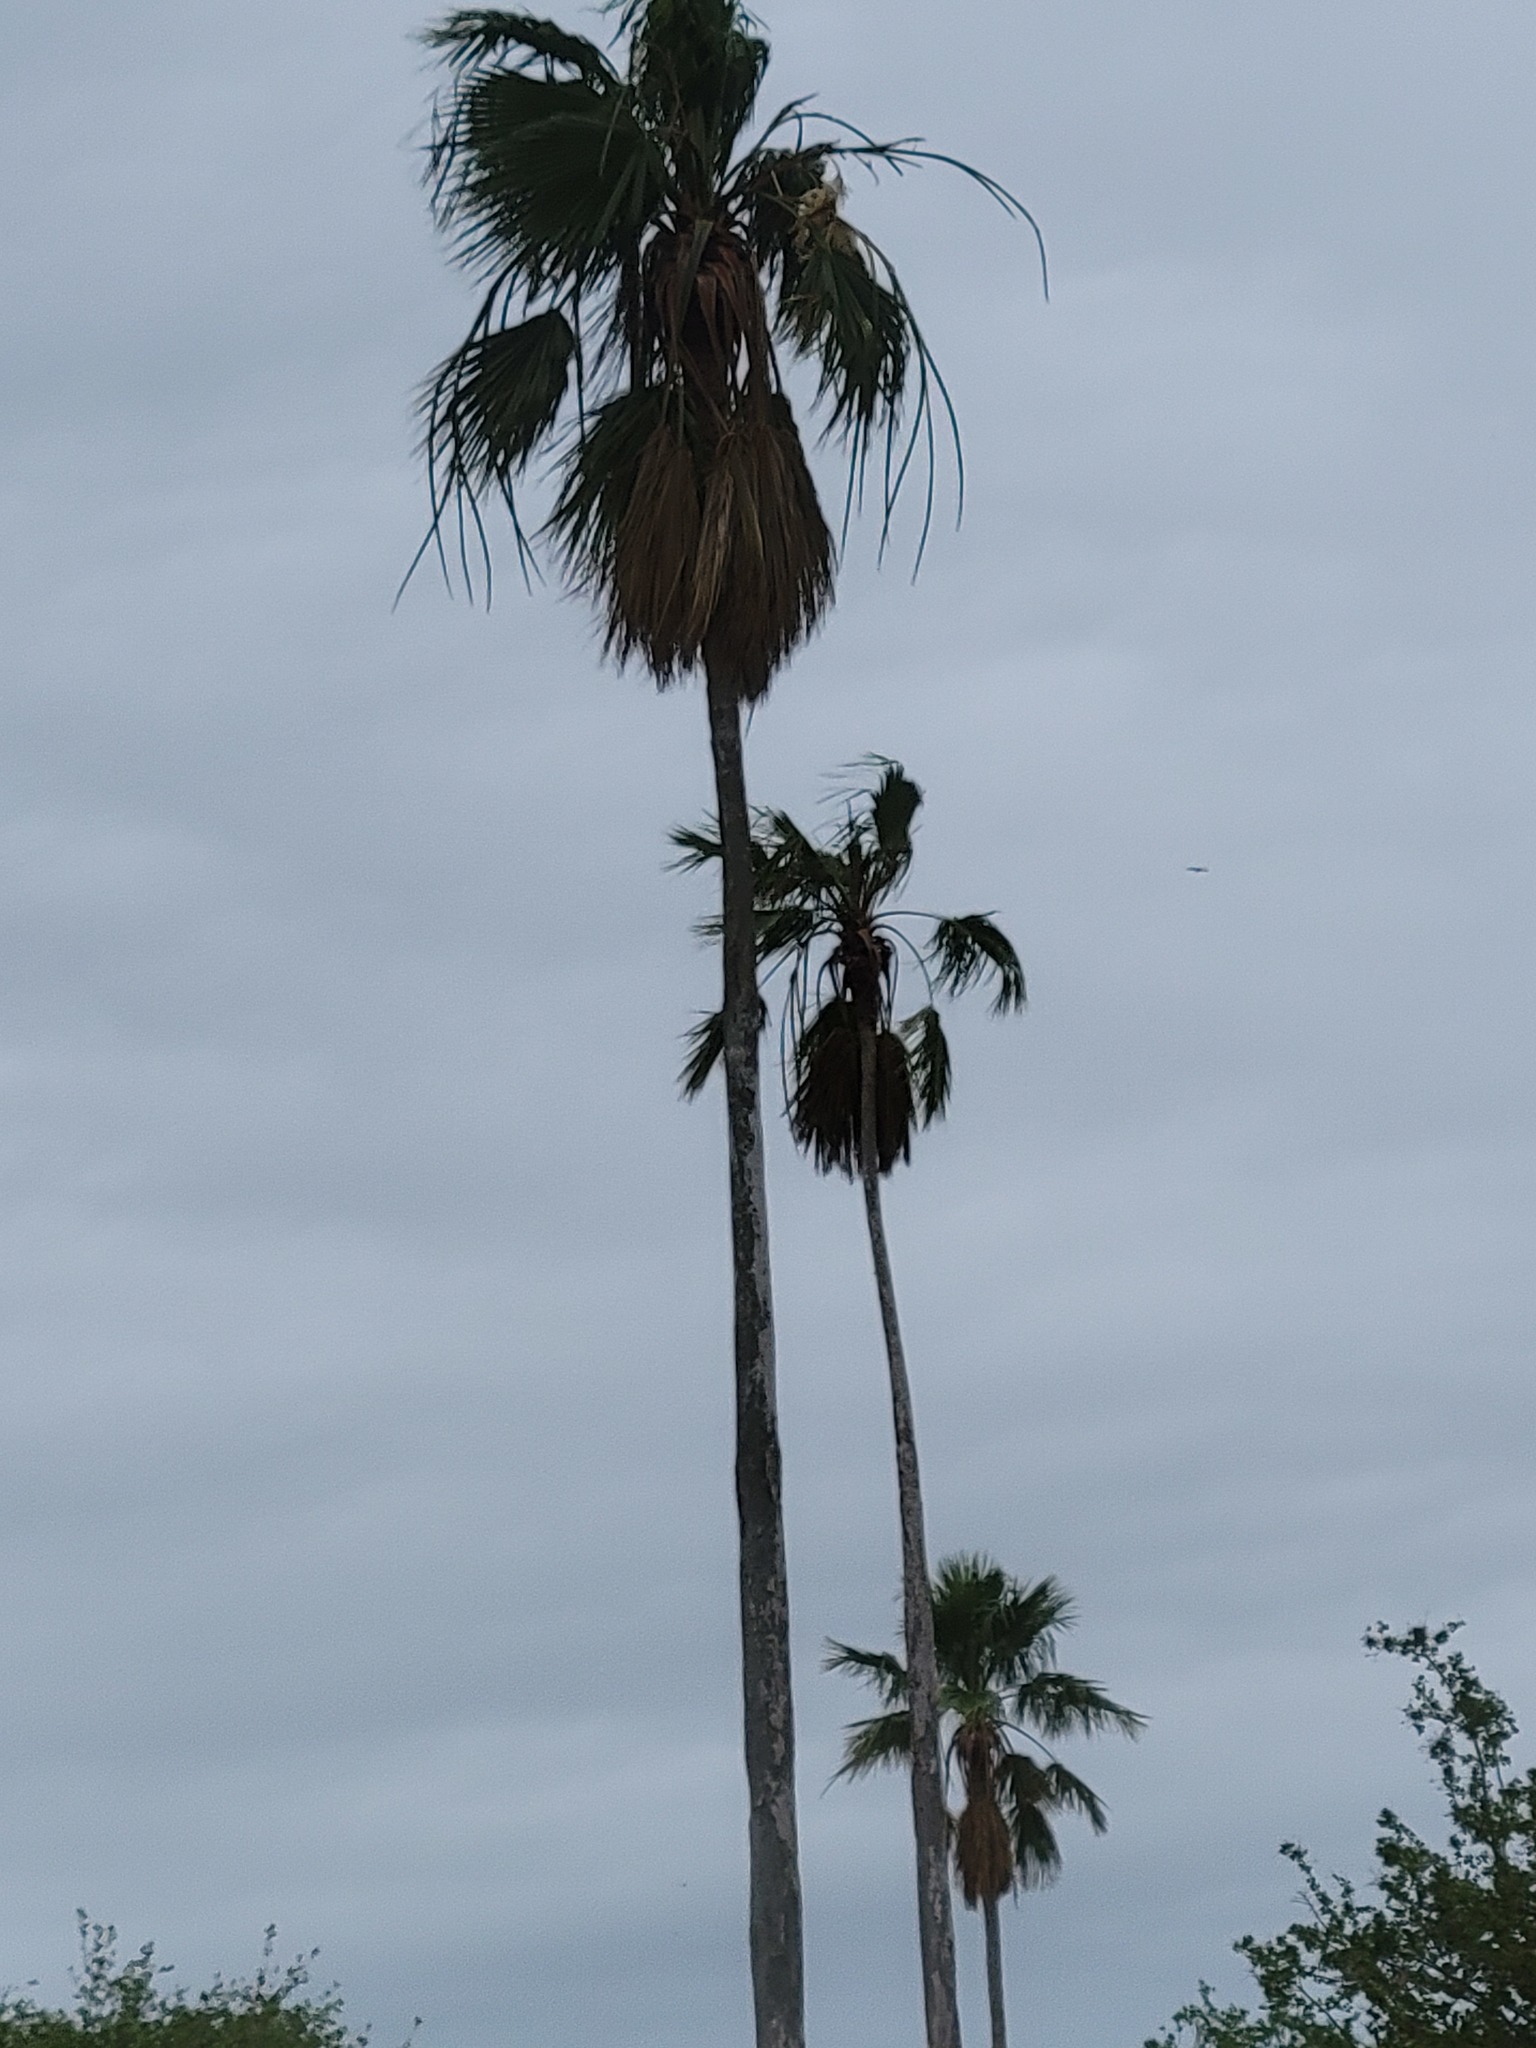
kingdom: Plantae
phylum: Tracheophyta
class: Liliopsida
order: Arecales
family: Arecaceae
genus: Washingtonia
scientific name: Washingtonia robusta
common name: Mexican fan palm
